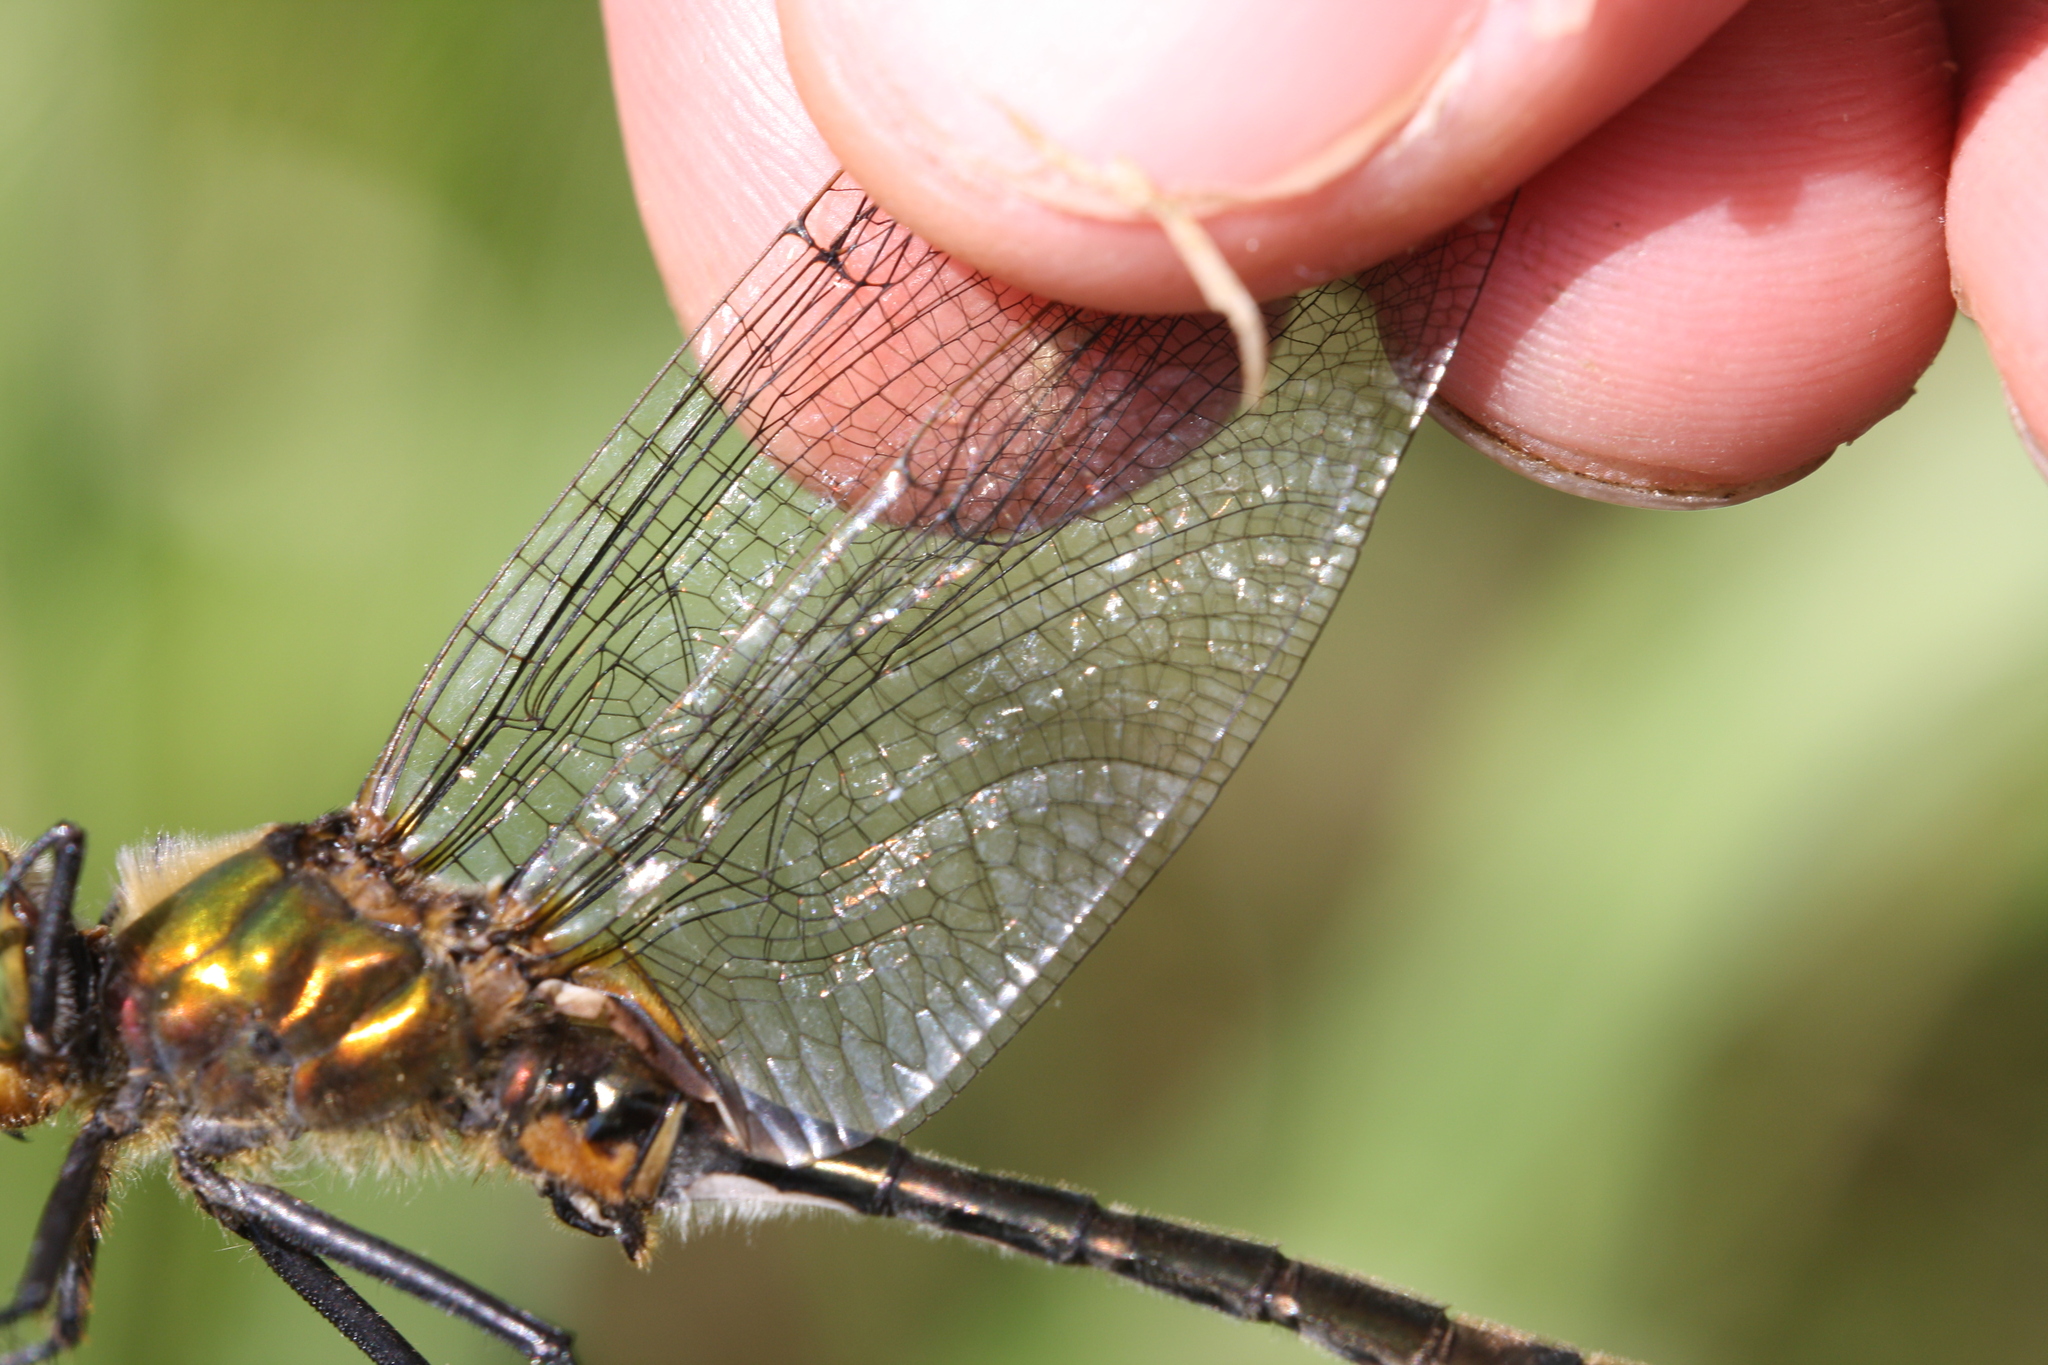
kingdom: Animalia
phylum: Arthropoda
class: Insecta
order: Odonata
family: Corduliidae
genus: Cordulia
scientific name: Cordulia aenea
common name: Downy emerald
